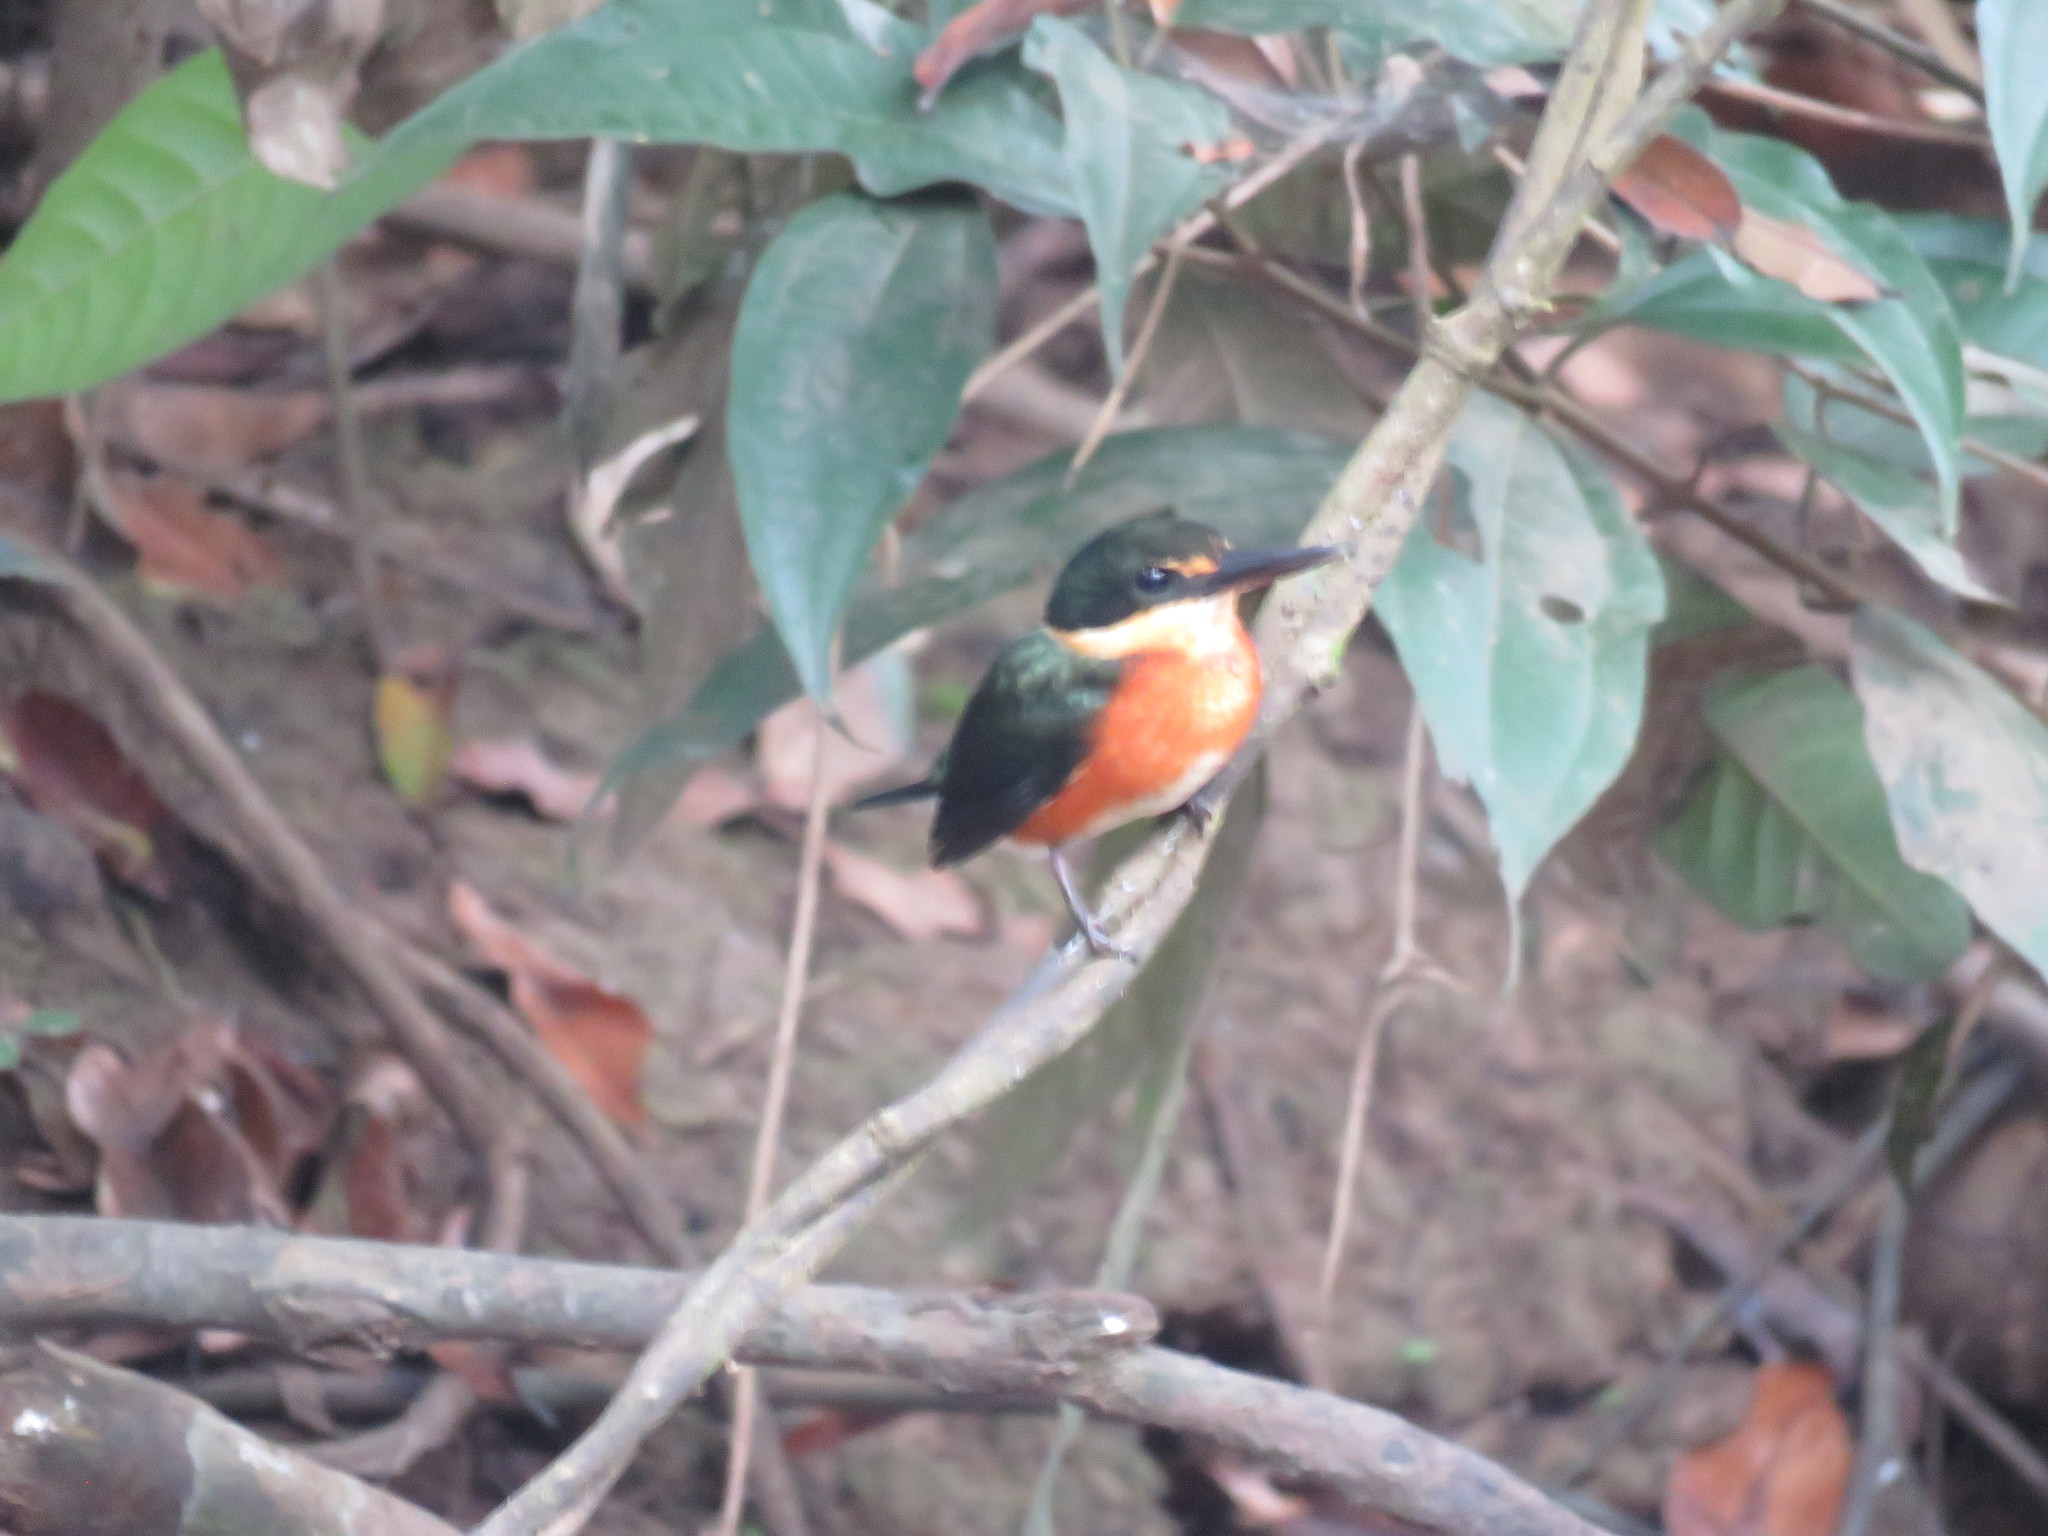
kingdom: Animalia
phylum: Chordata
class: Aves
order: Coraciiformes
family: Alcedinidae
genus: Chloroceryle
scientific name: Chloroceryle aenea
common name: American pygmy kingfisher
